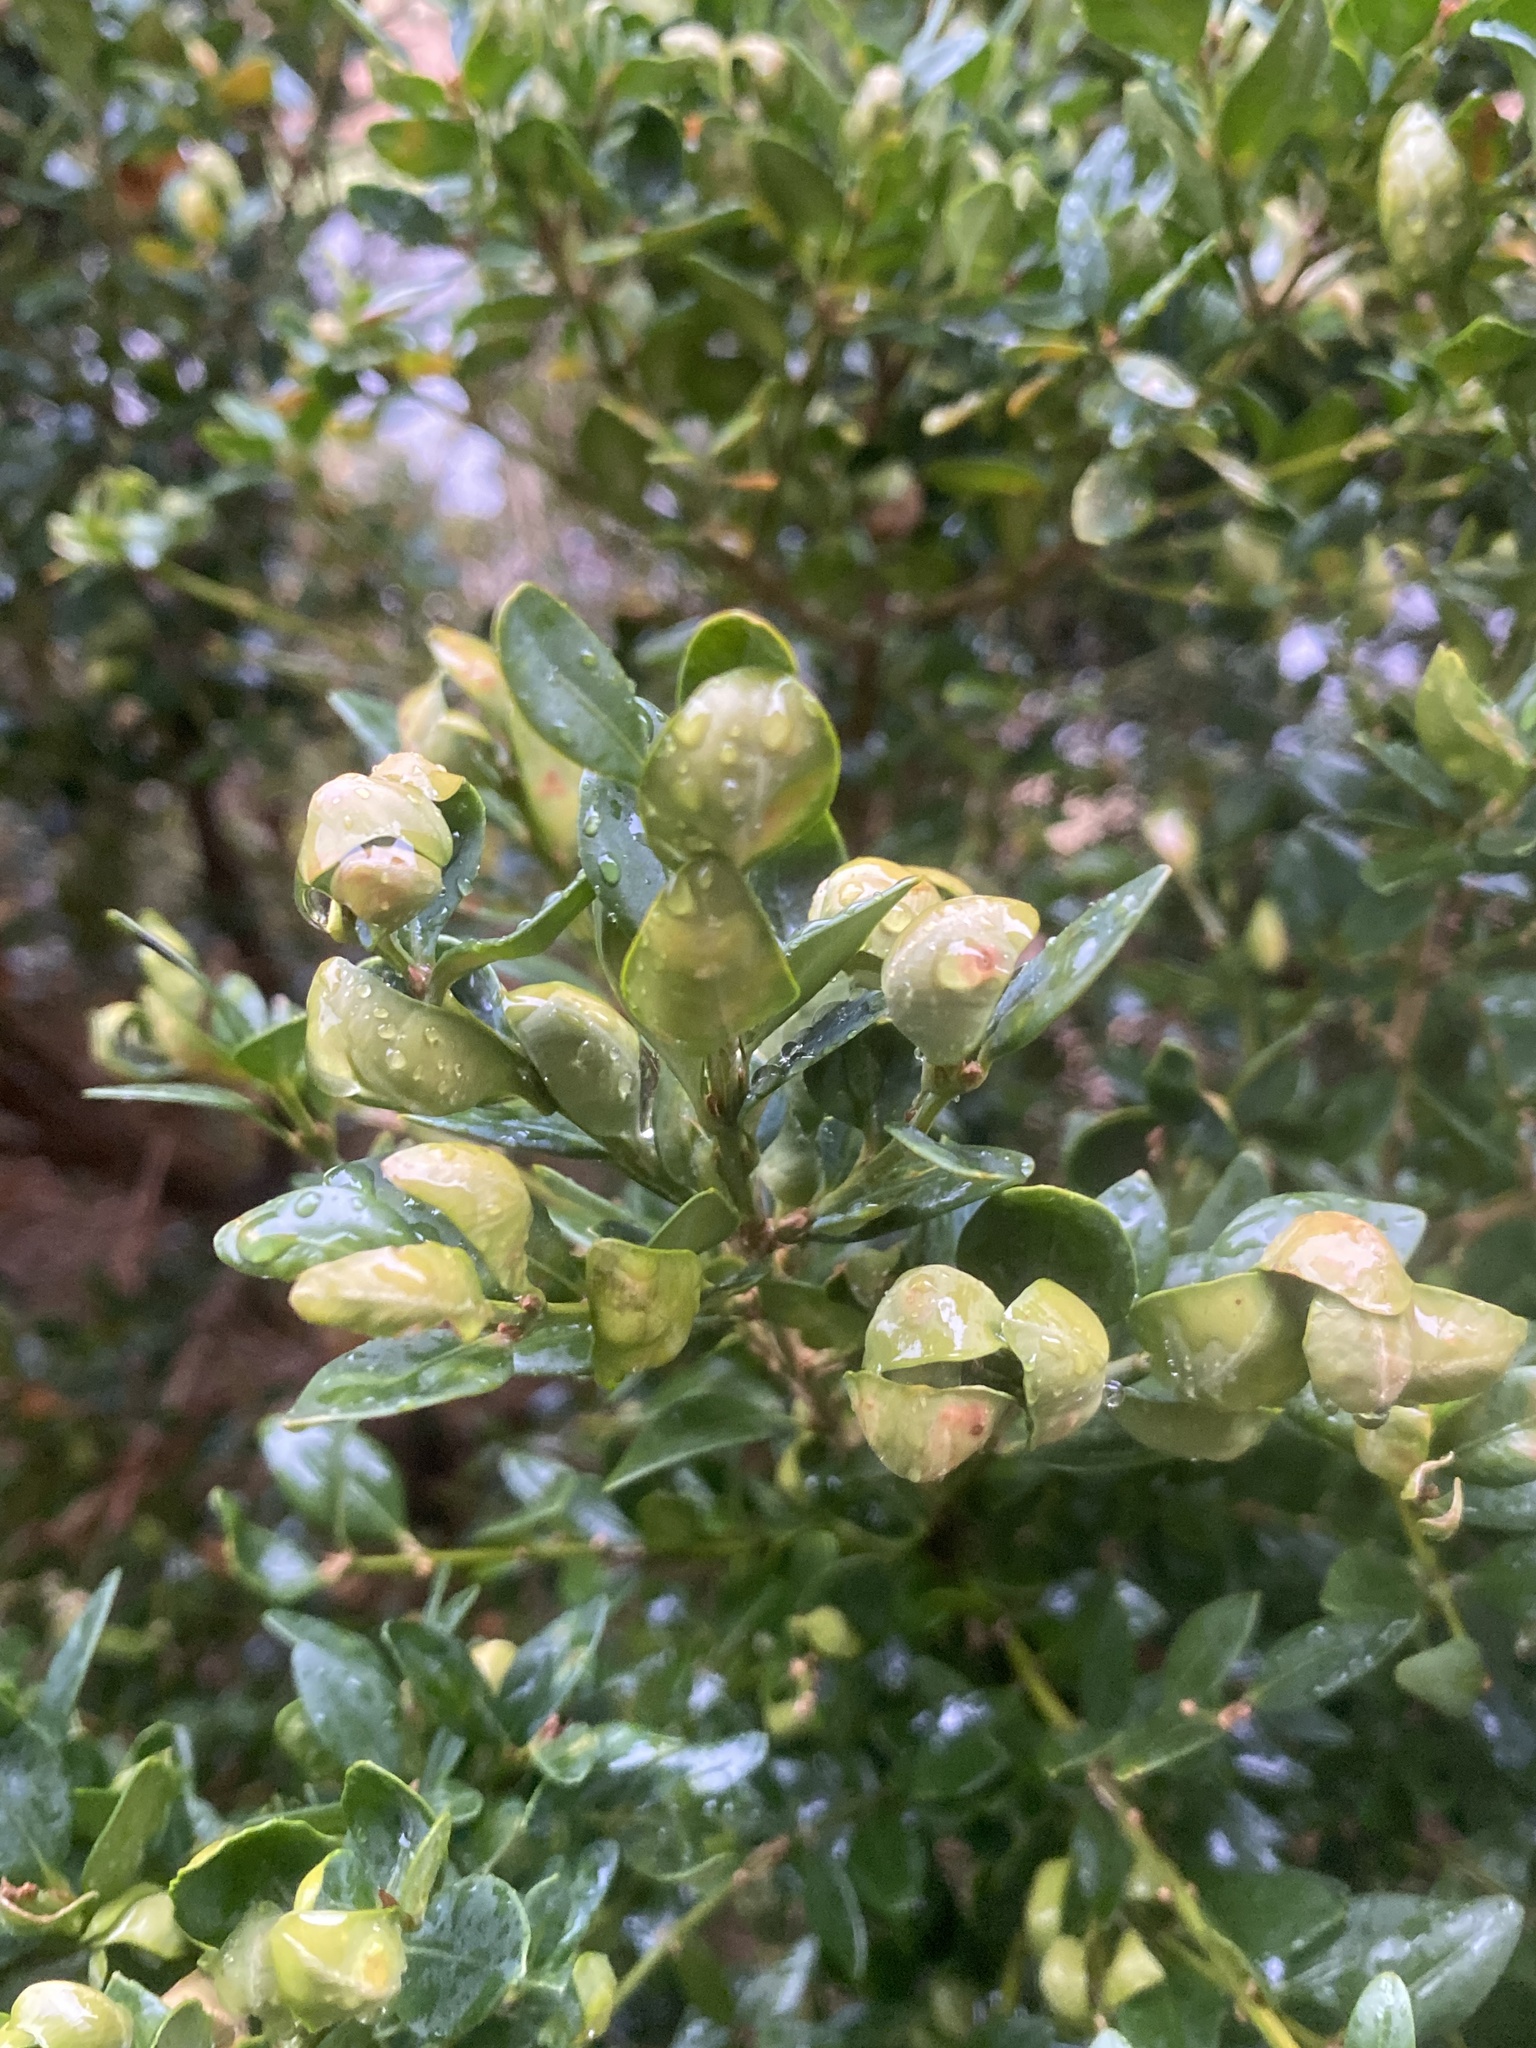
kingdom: Animalia
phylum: Arthropoda
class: Insecta
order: Hemiptera
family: Psyllidae
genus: Psylla
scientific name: Psylla buxi
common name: Boxwood psyllid
